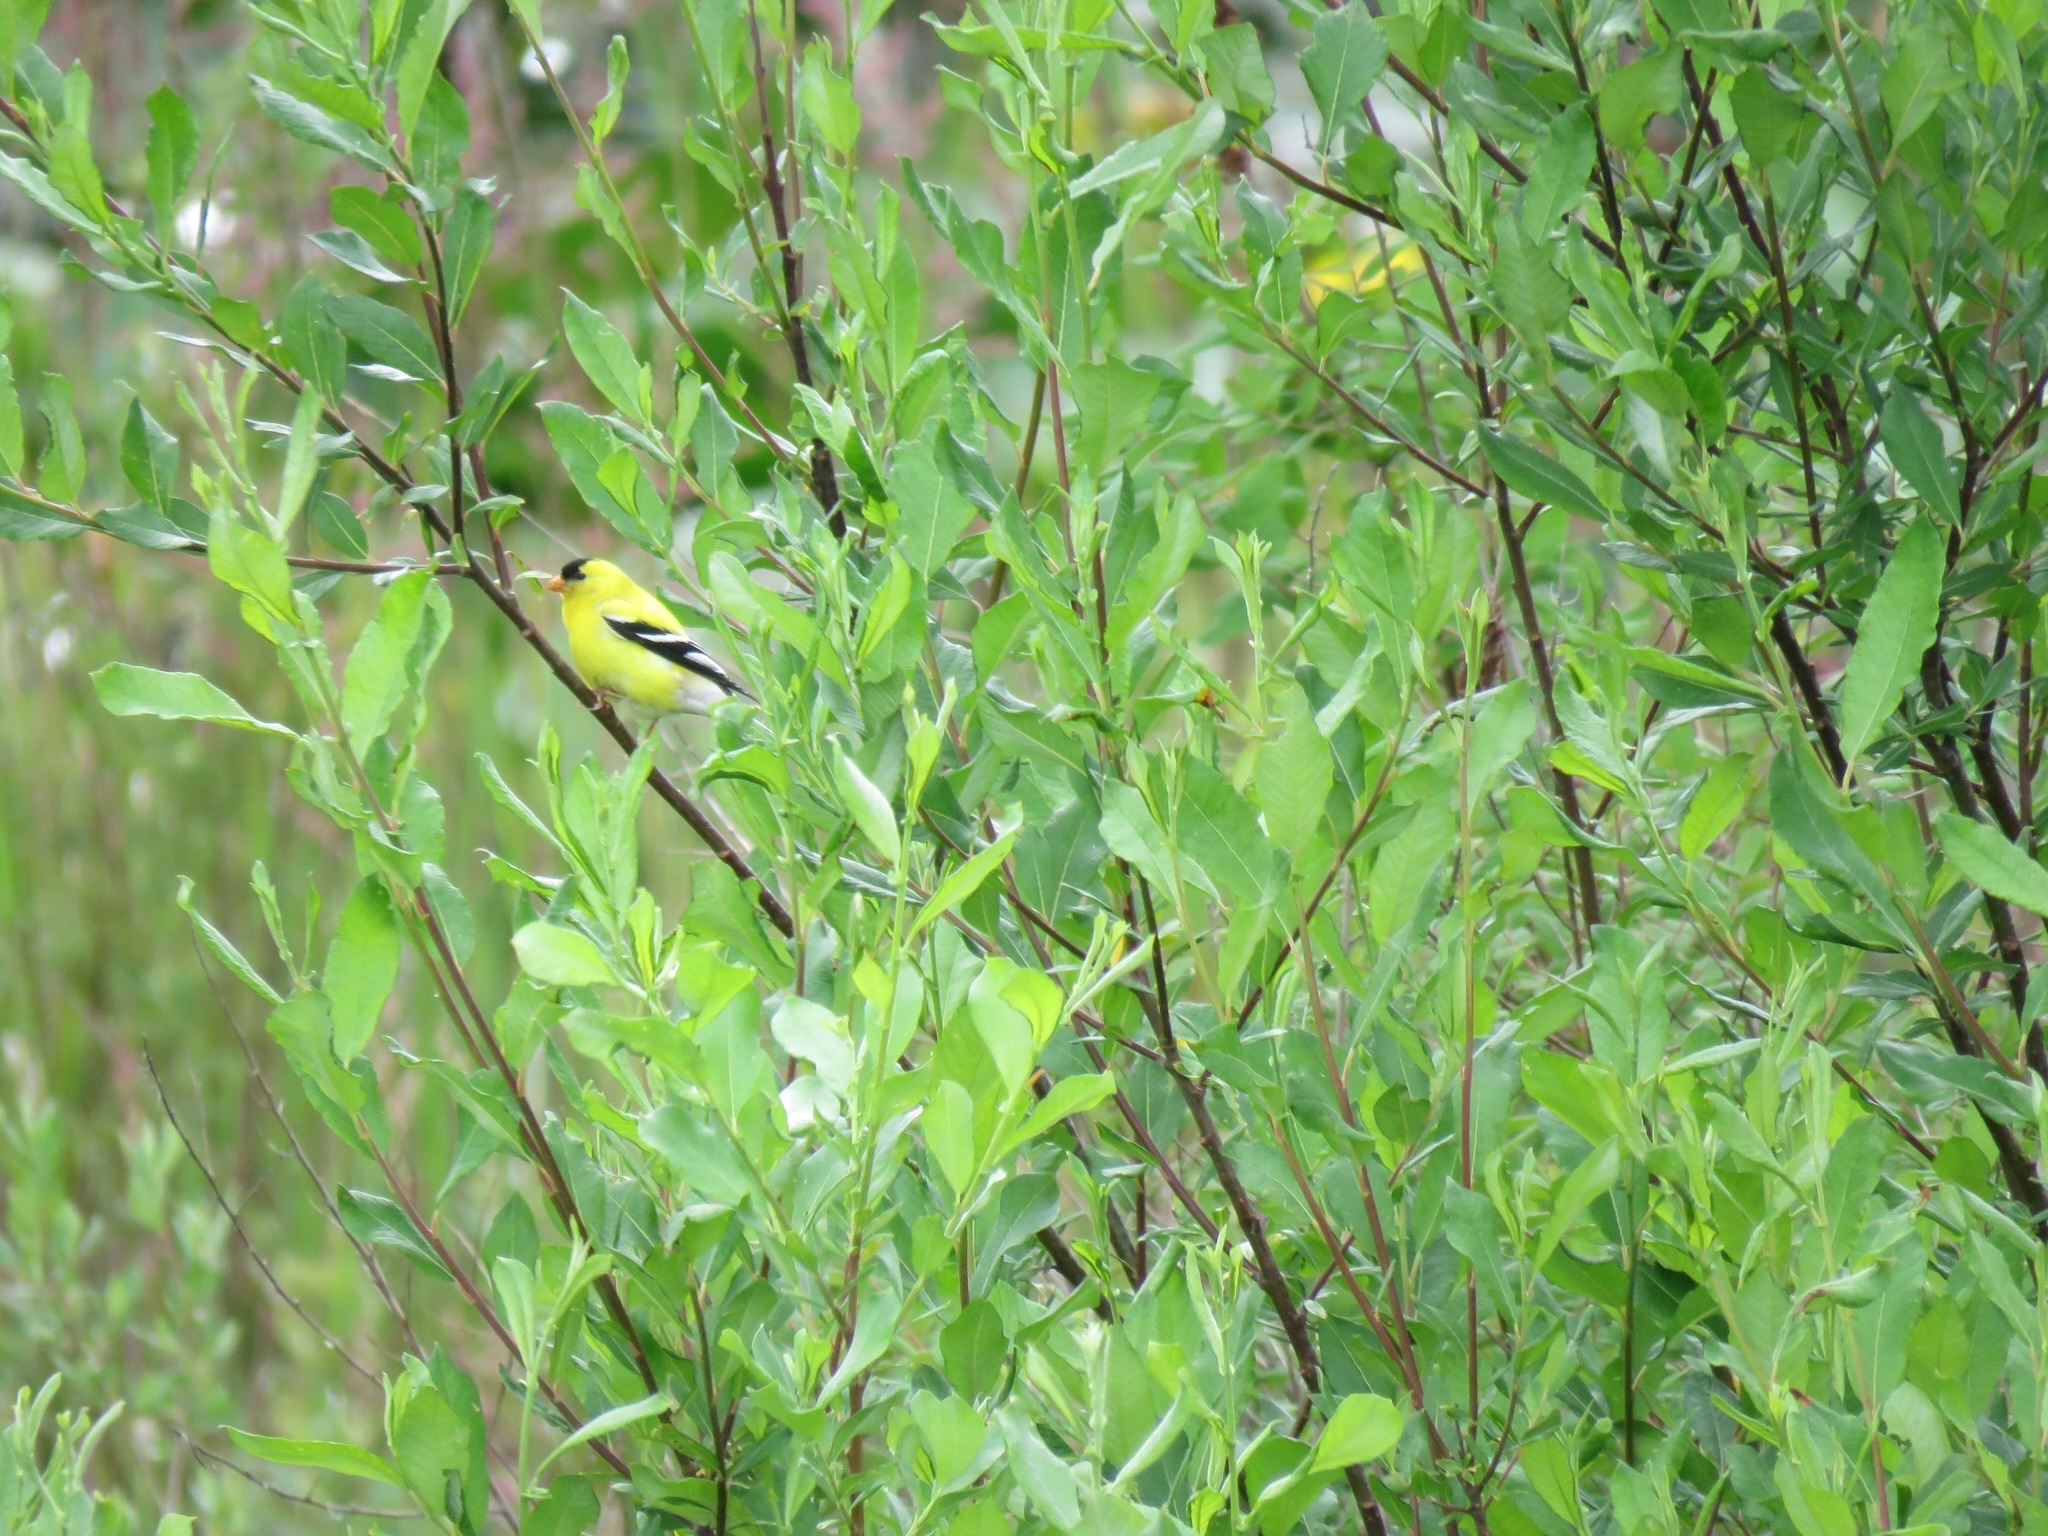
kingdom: Animalia
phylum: Chordata
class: Aves
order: Passeriformes
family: Fringillidae
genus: Spinus
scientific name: Spinus tristis
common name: American goldfinch
